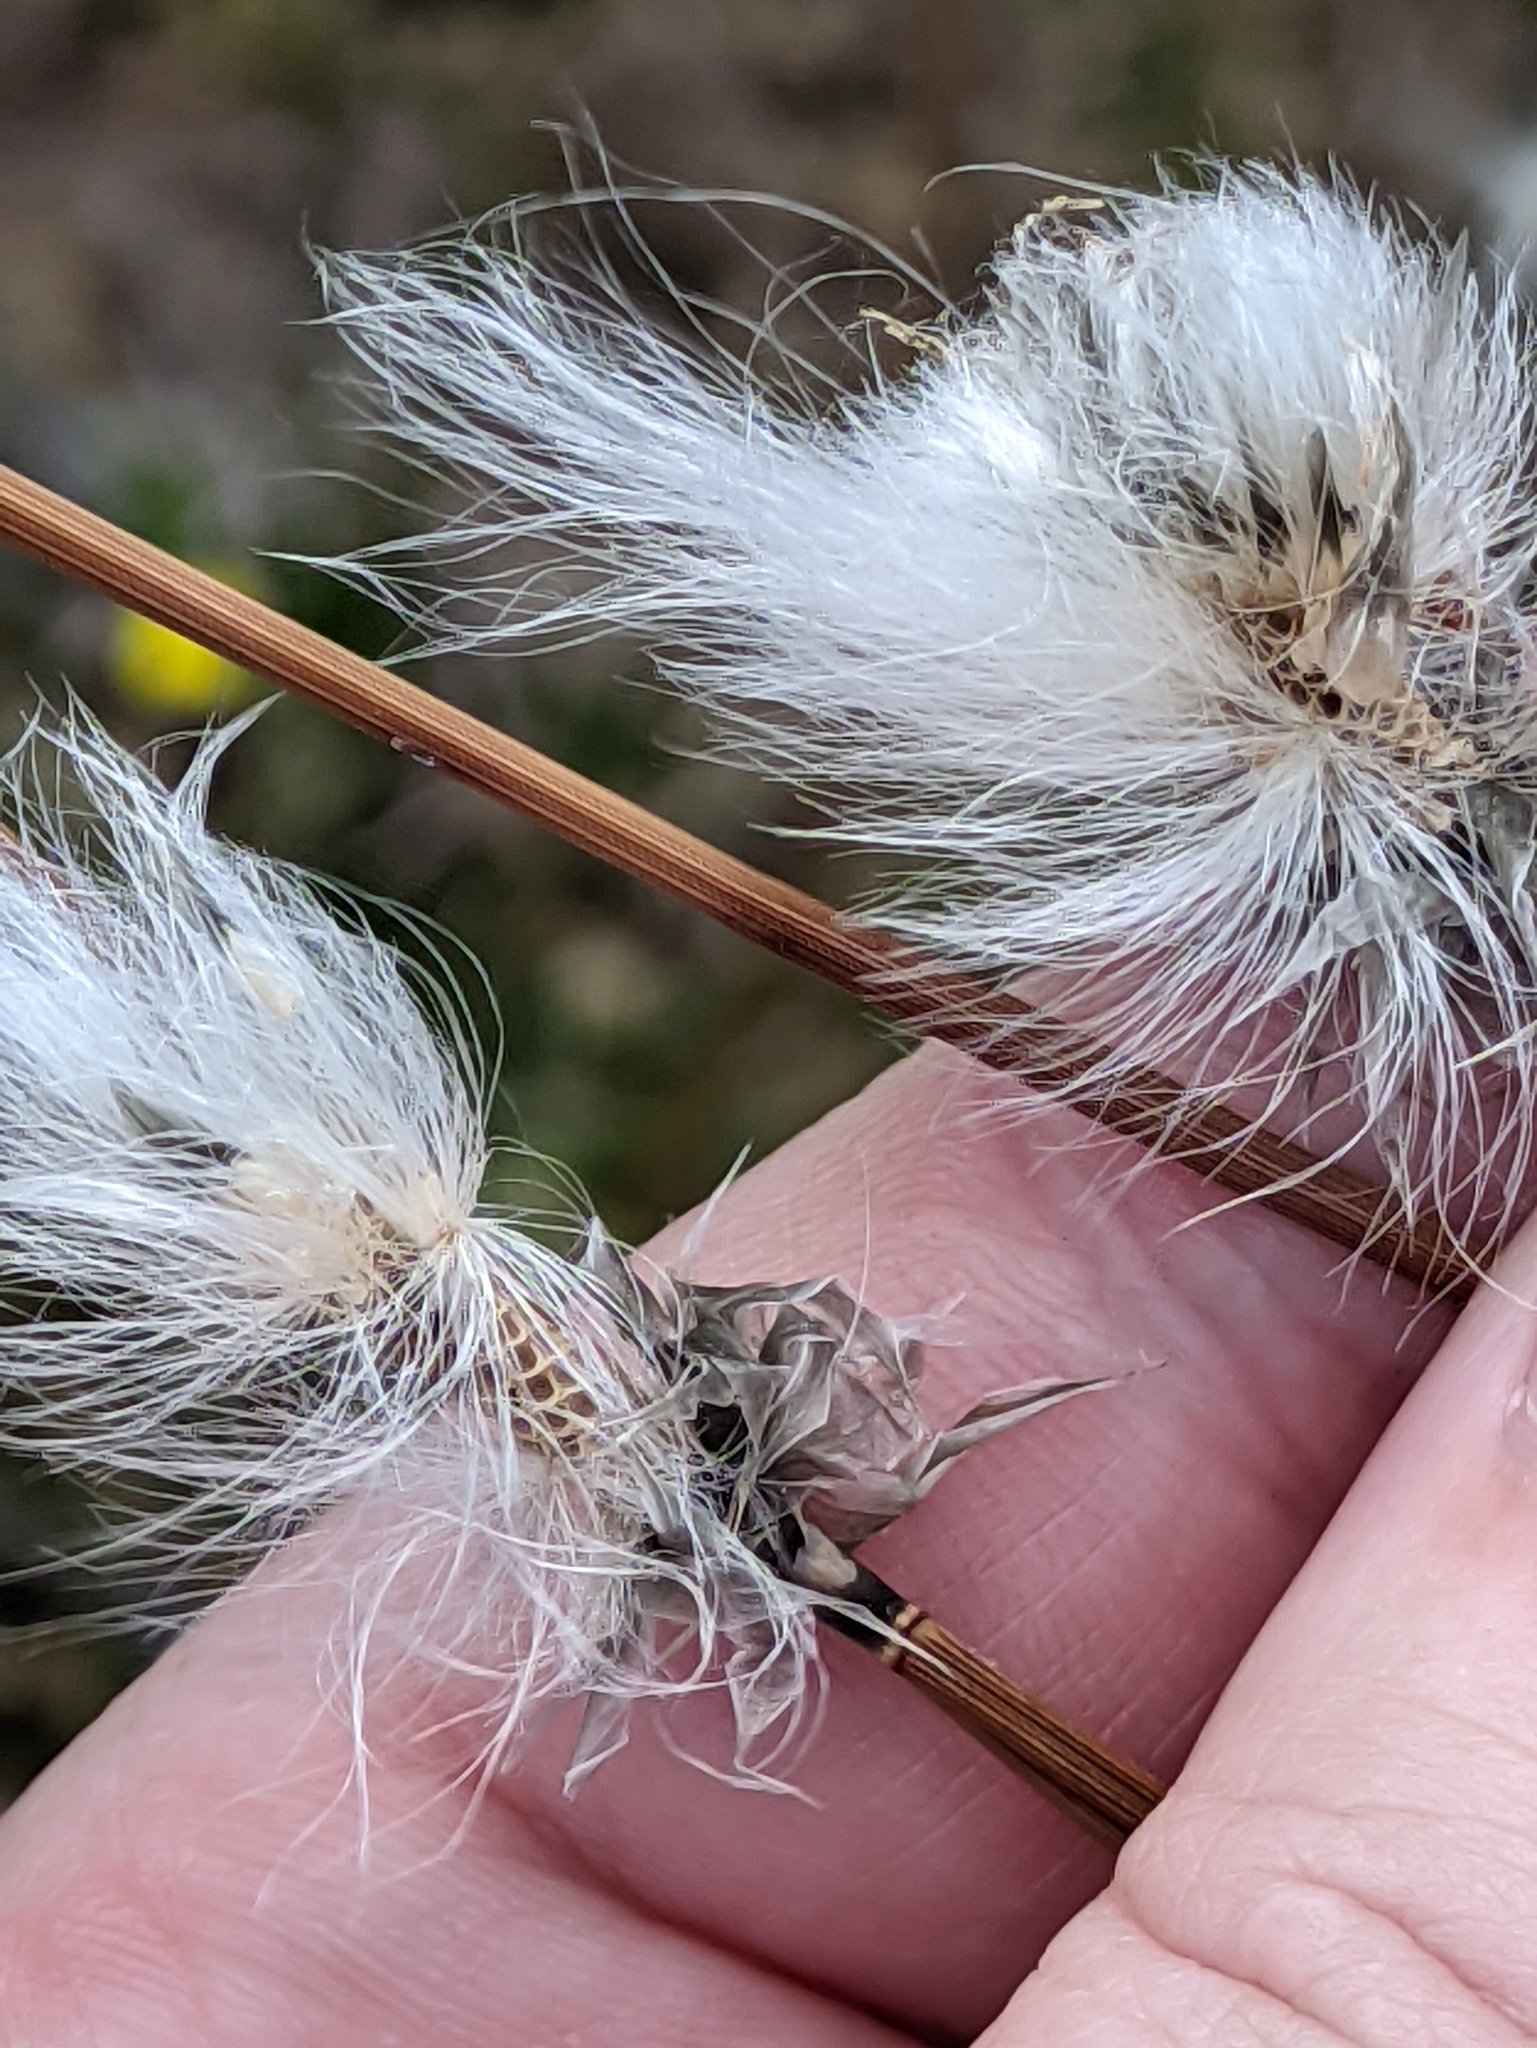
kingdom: Plantae
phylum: Tracheophyta
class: Liliopsida
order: Poales
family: Cyperaceae
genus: Eriophorum
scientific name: Eriophorum vaginatum
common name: Hare's-tail cottongrass
